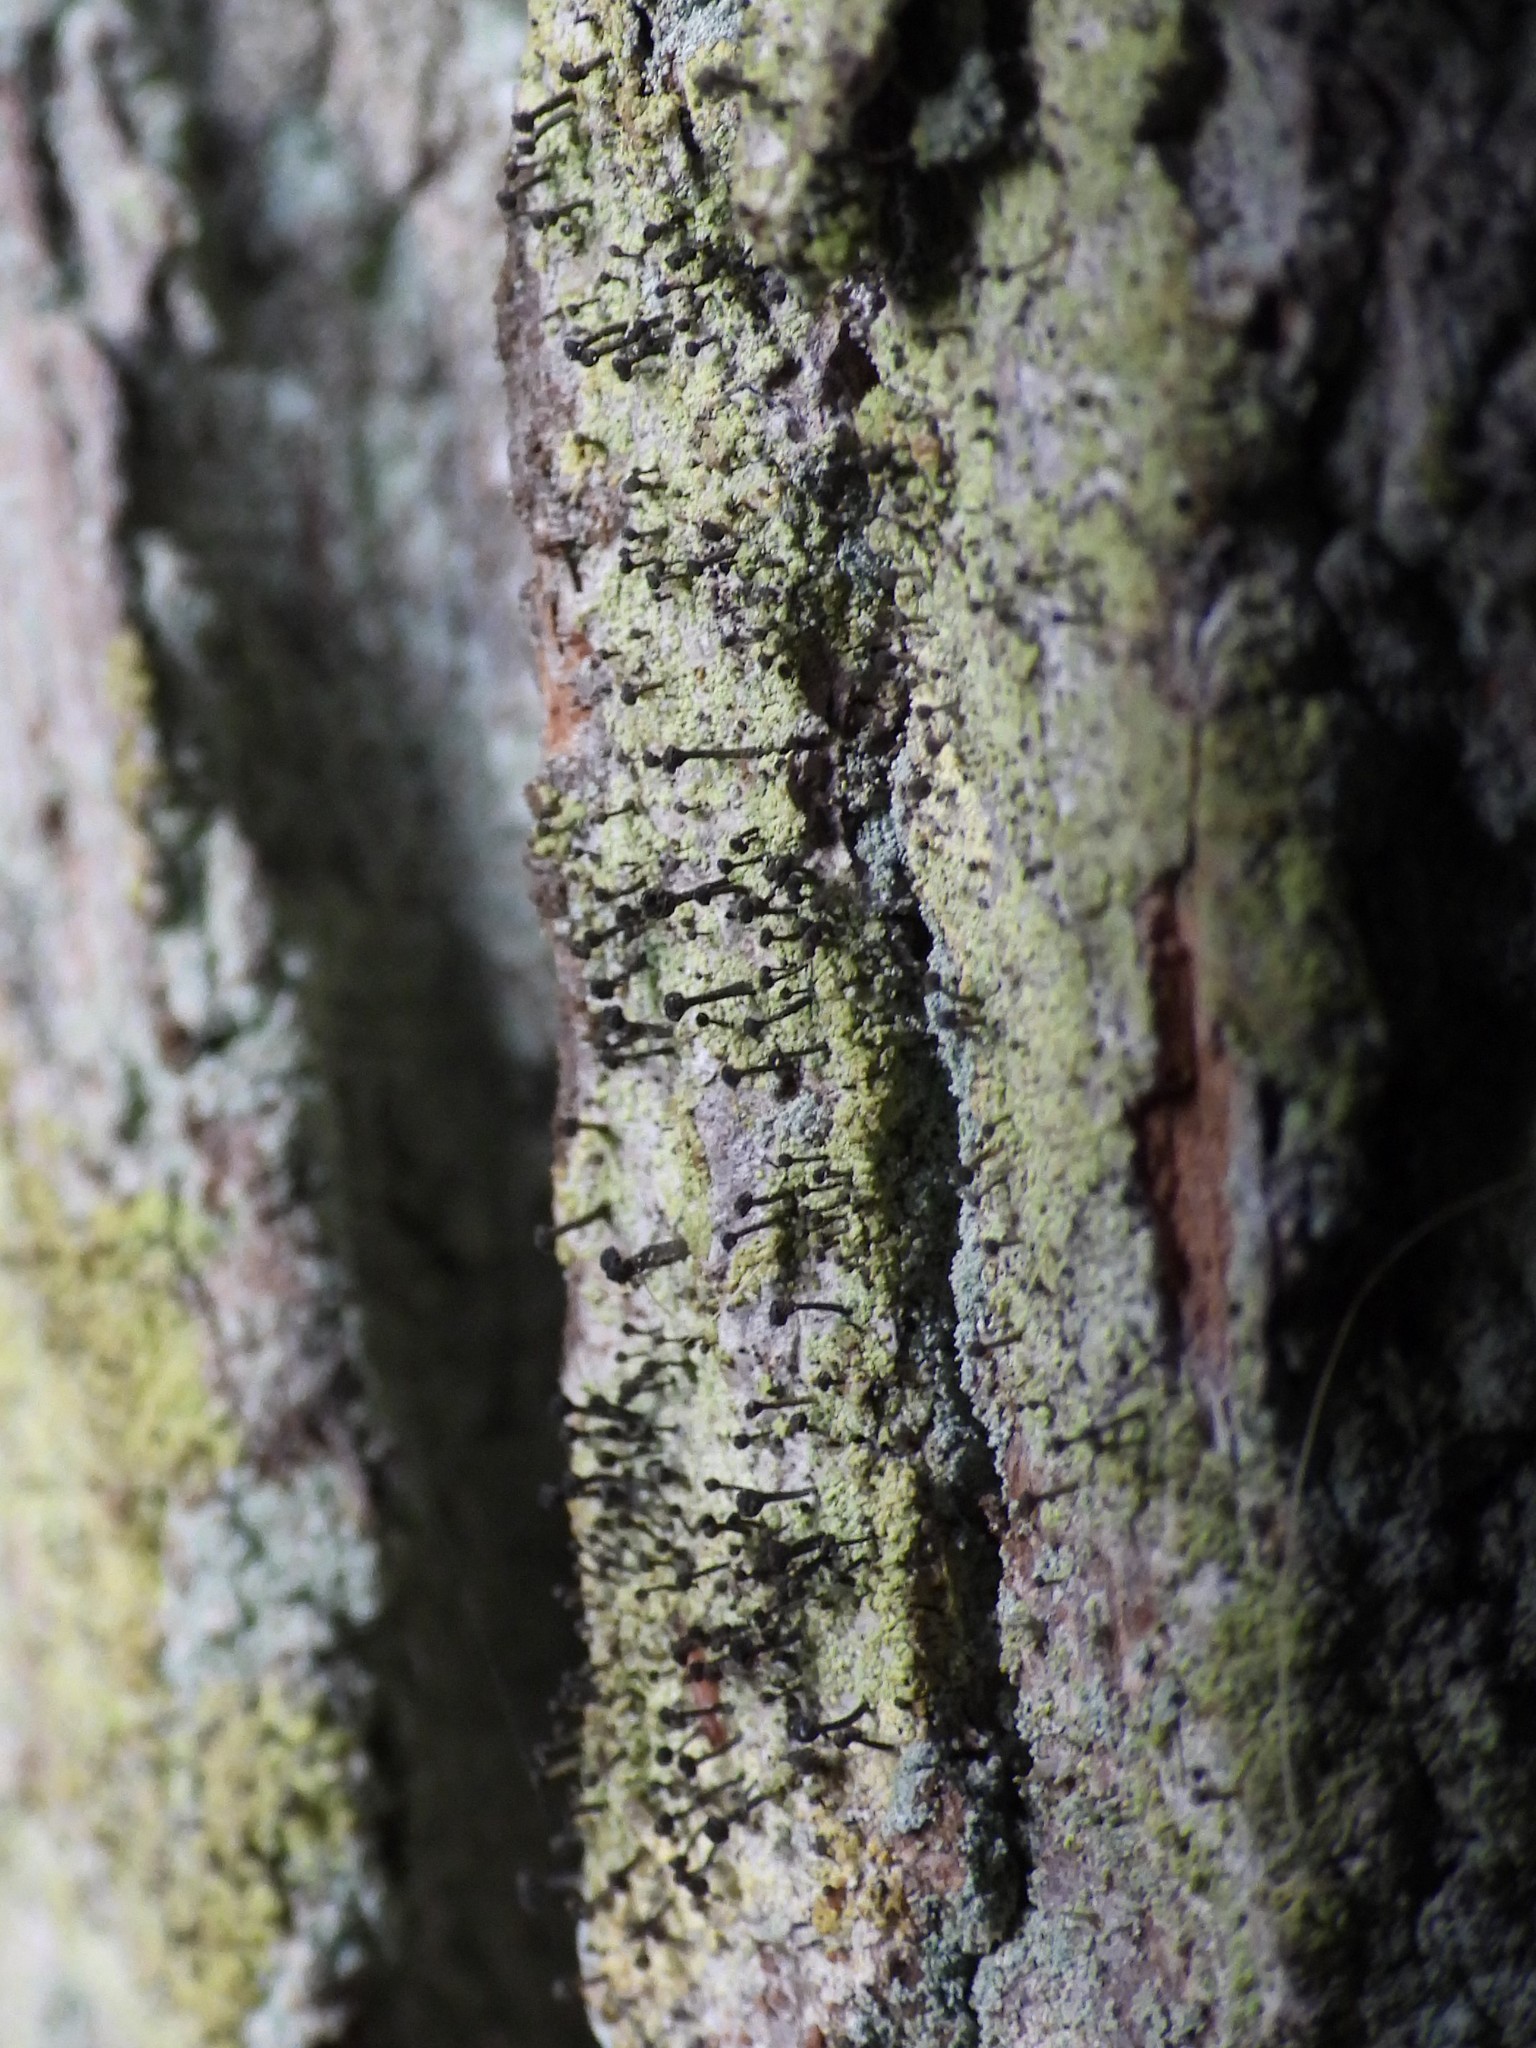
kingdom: Fungi
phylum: Ascomycota
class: Lecanoromycetes
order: Caliciales
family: Caliciaceae
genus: Calicium
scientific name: Calicium viride
